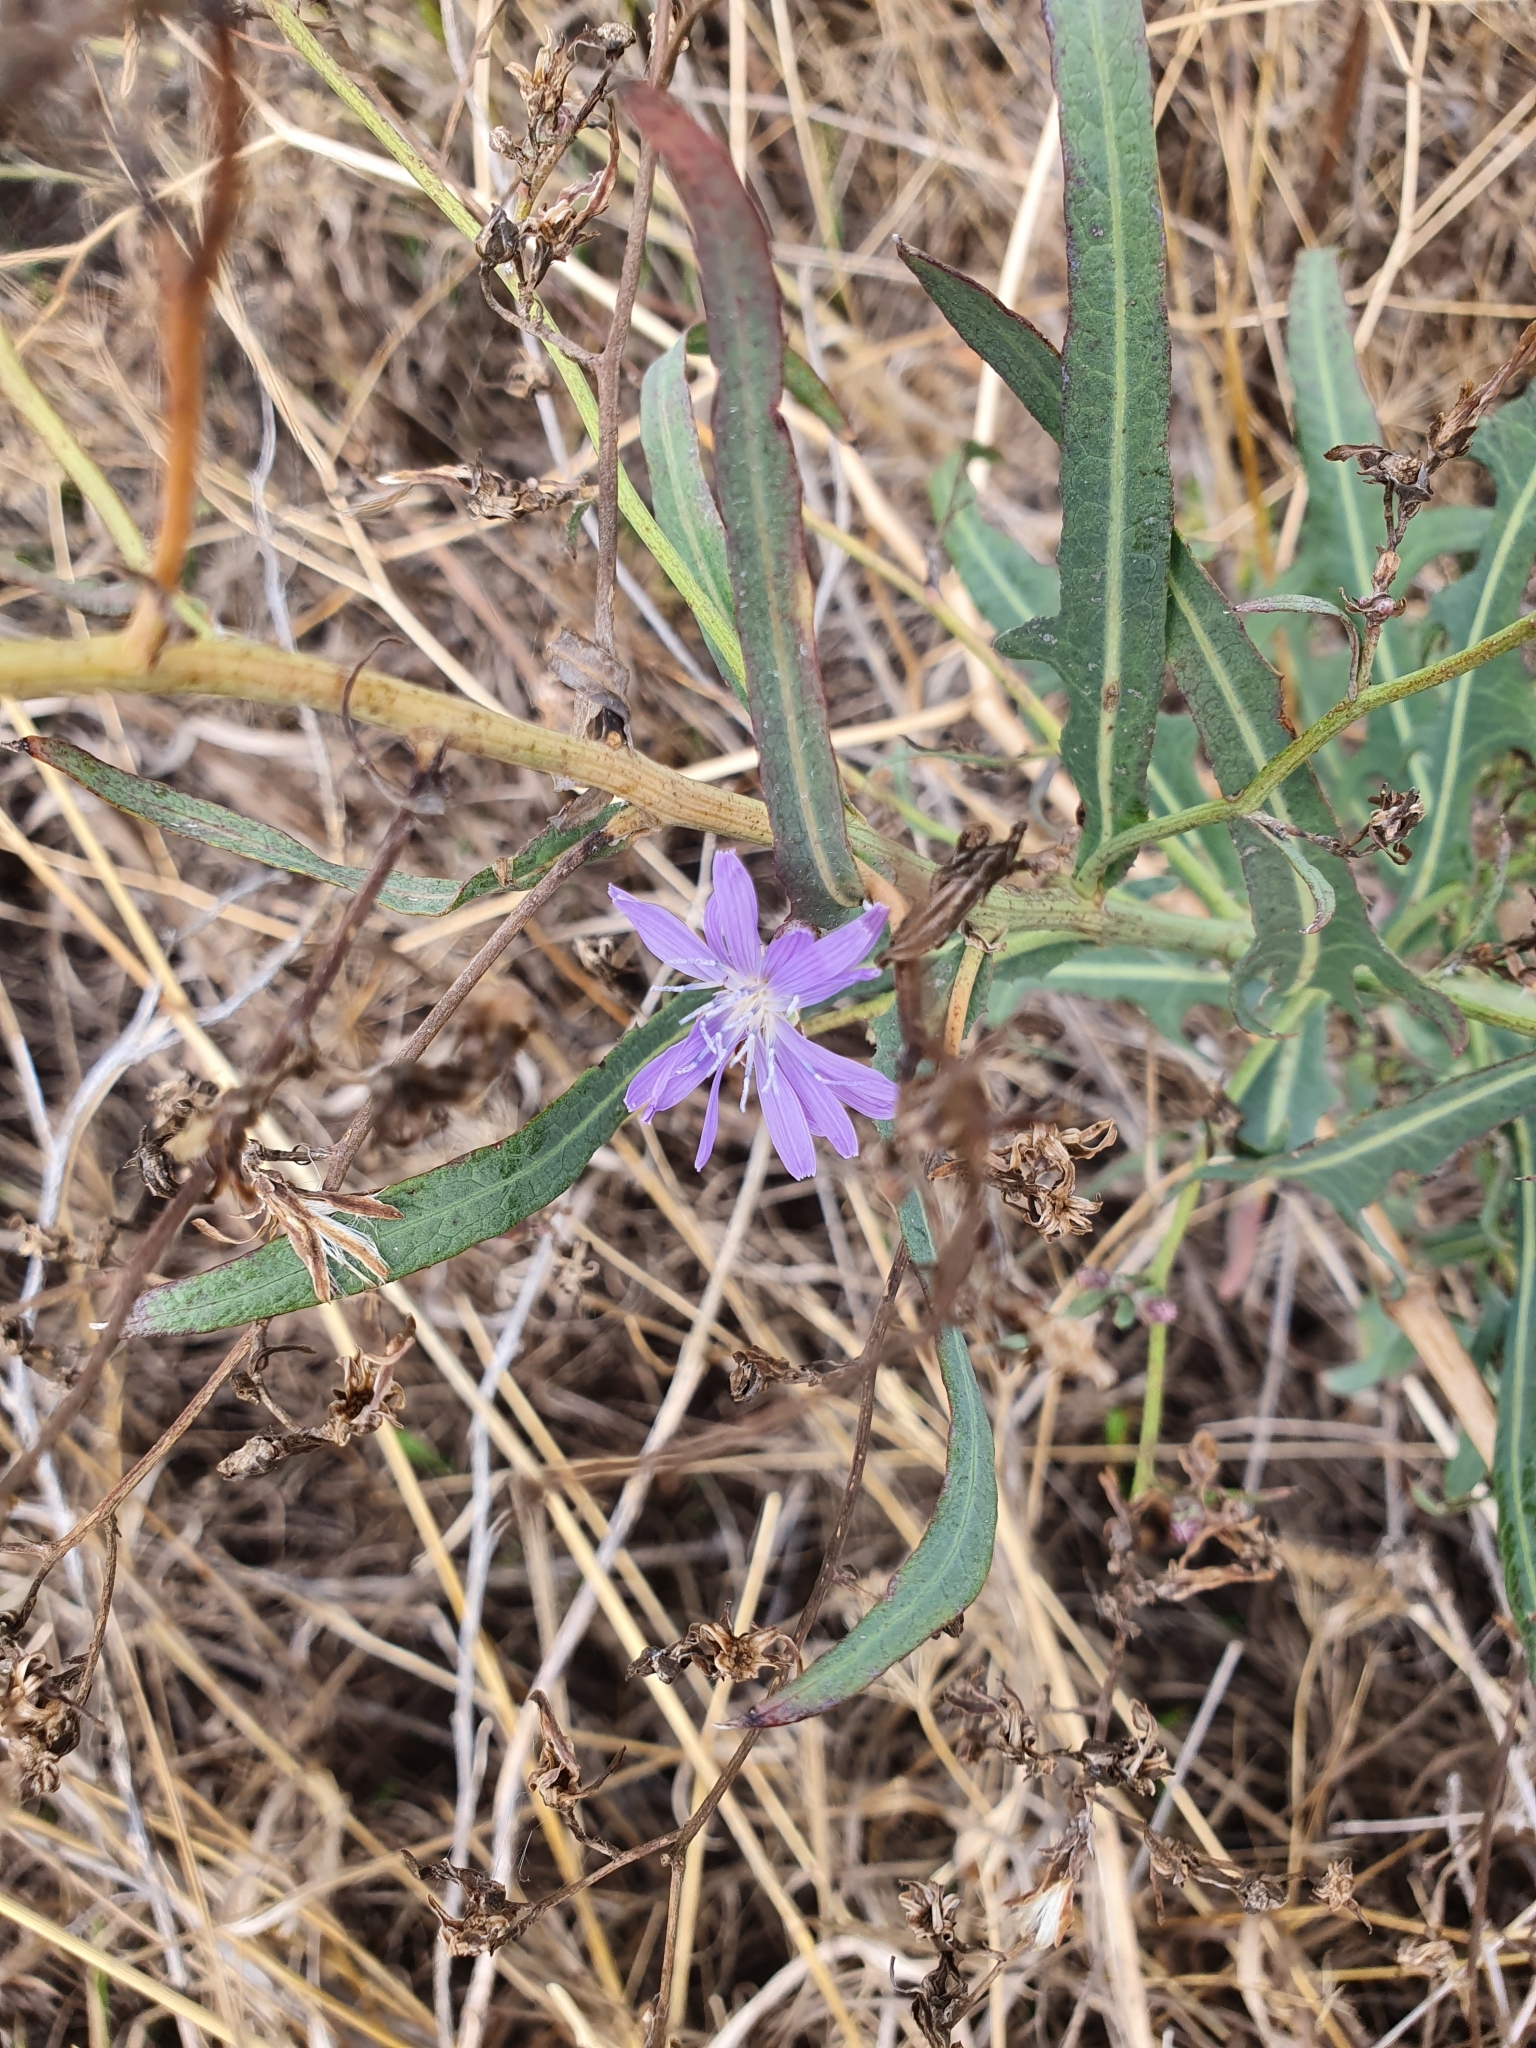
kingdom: Plantae
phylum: Tracheophyta
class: Magnoliopsida
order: Asterales
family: Asteraceae
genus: Lactuca
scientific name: Lactuca tatarica
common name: Blue lettuce
